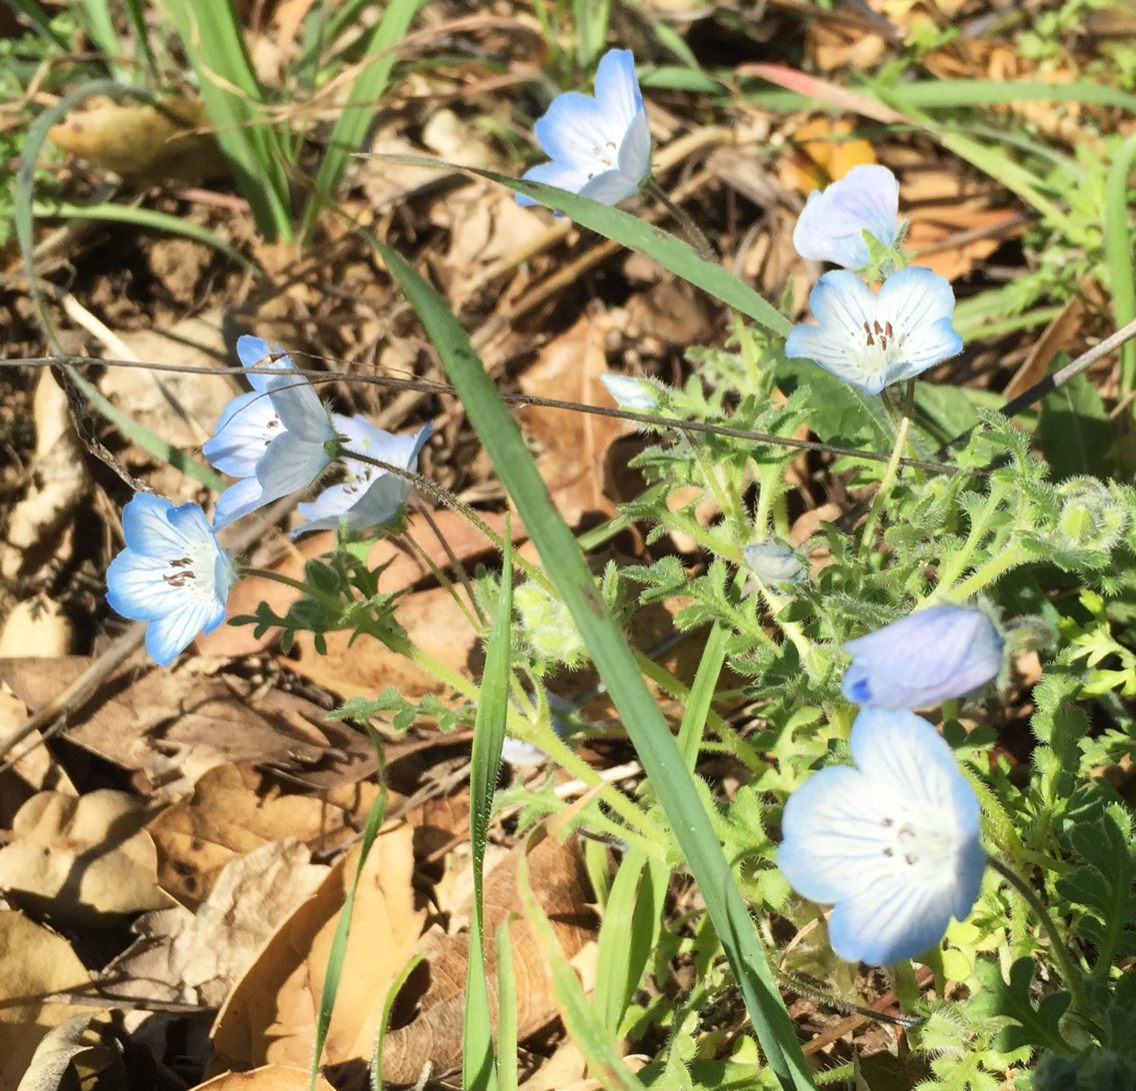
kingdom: Plantae
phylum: Tracheophyta
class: Magnoliopsida
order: Boraginales
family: Hydrophyllaceae
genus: Nemophila
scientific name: Nemophila menziesii
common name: Baby's-blue-eyes
